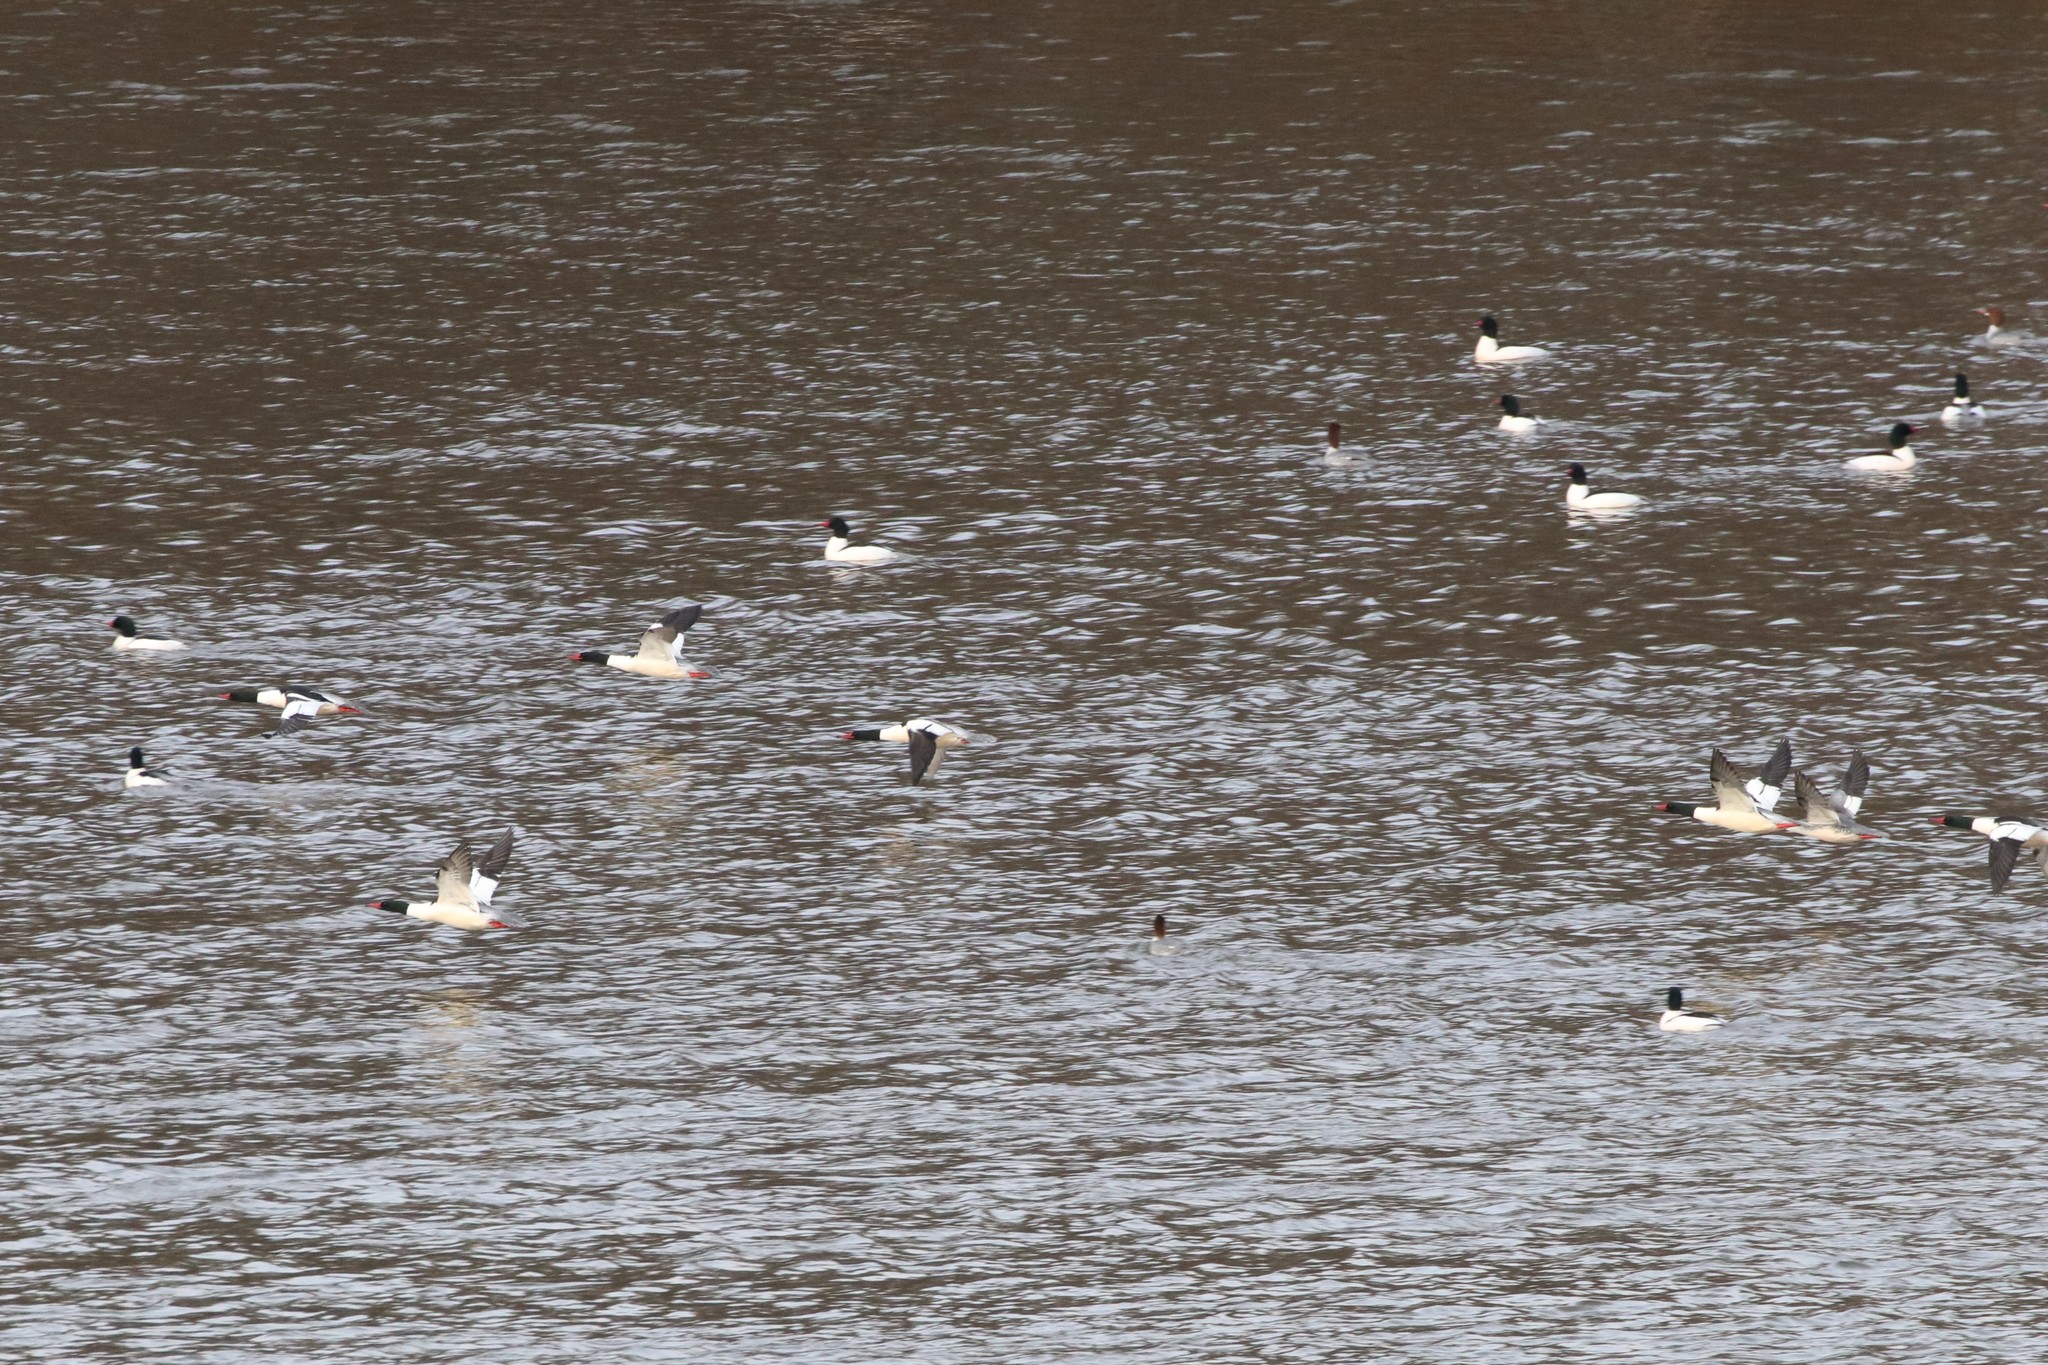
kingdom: Animalia
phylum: Chordata
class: Aves
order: Anseriformes
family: Anatidae
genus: Mergus
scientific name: Mergus merganser
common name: Common merganser
